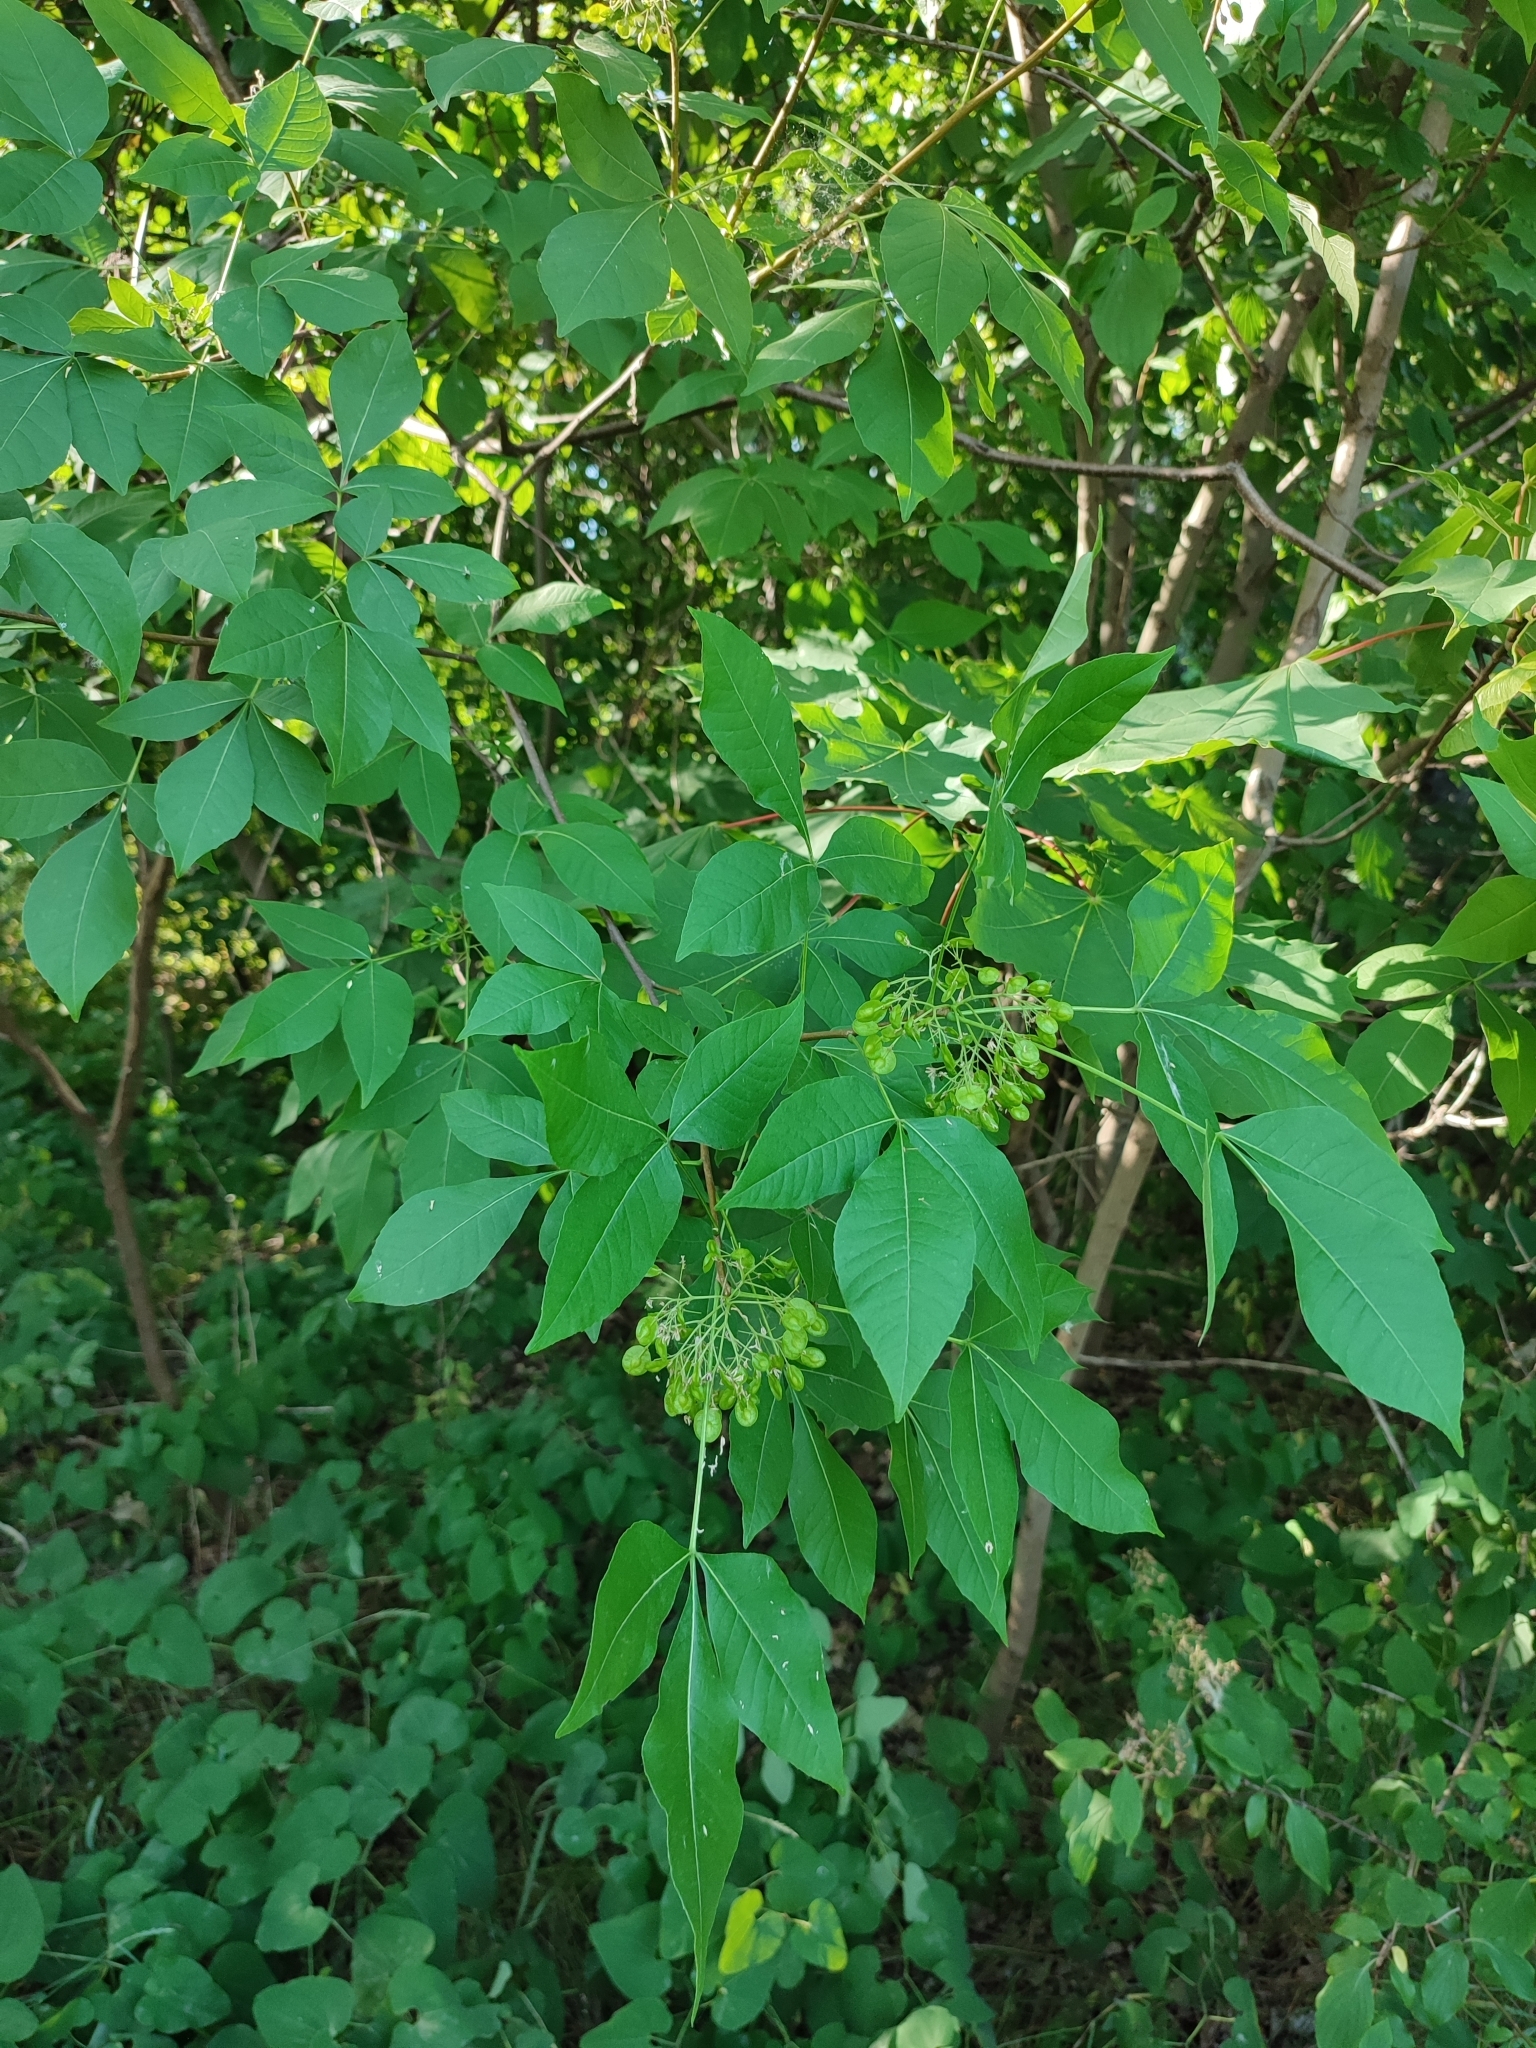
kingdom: Plantae
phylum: Tracheophyta
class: Magnoliopsida
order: Sapindales
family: Rutaceae
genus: Ptelea
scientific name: Ptelea trifoliata
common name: Common hop-tree
